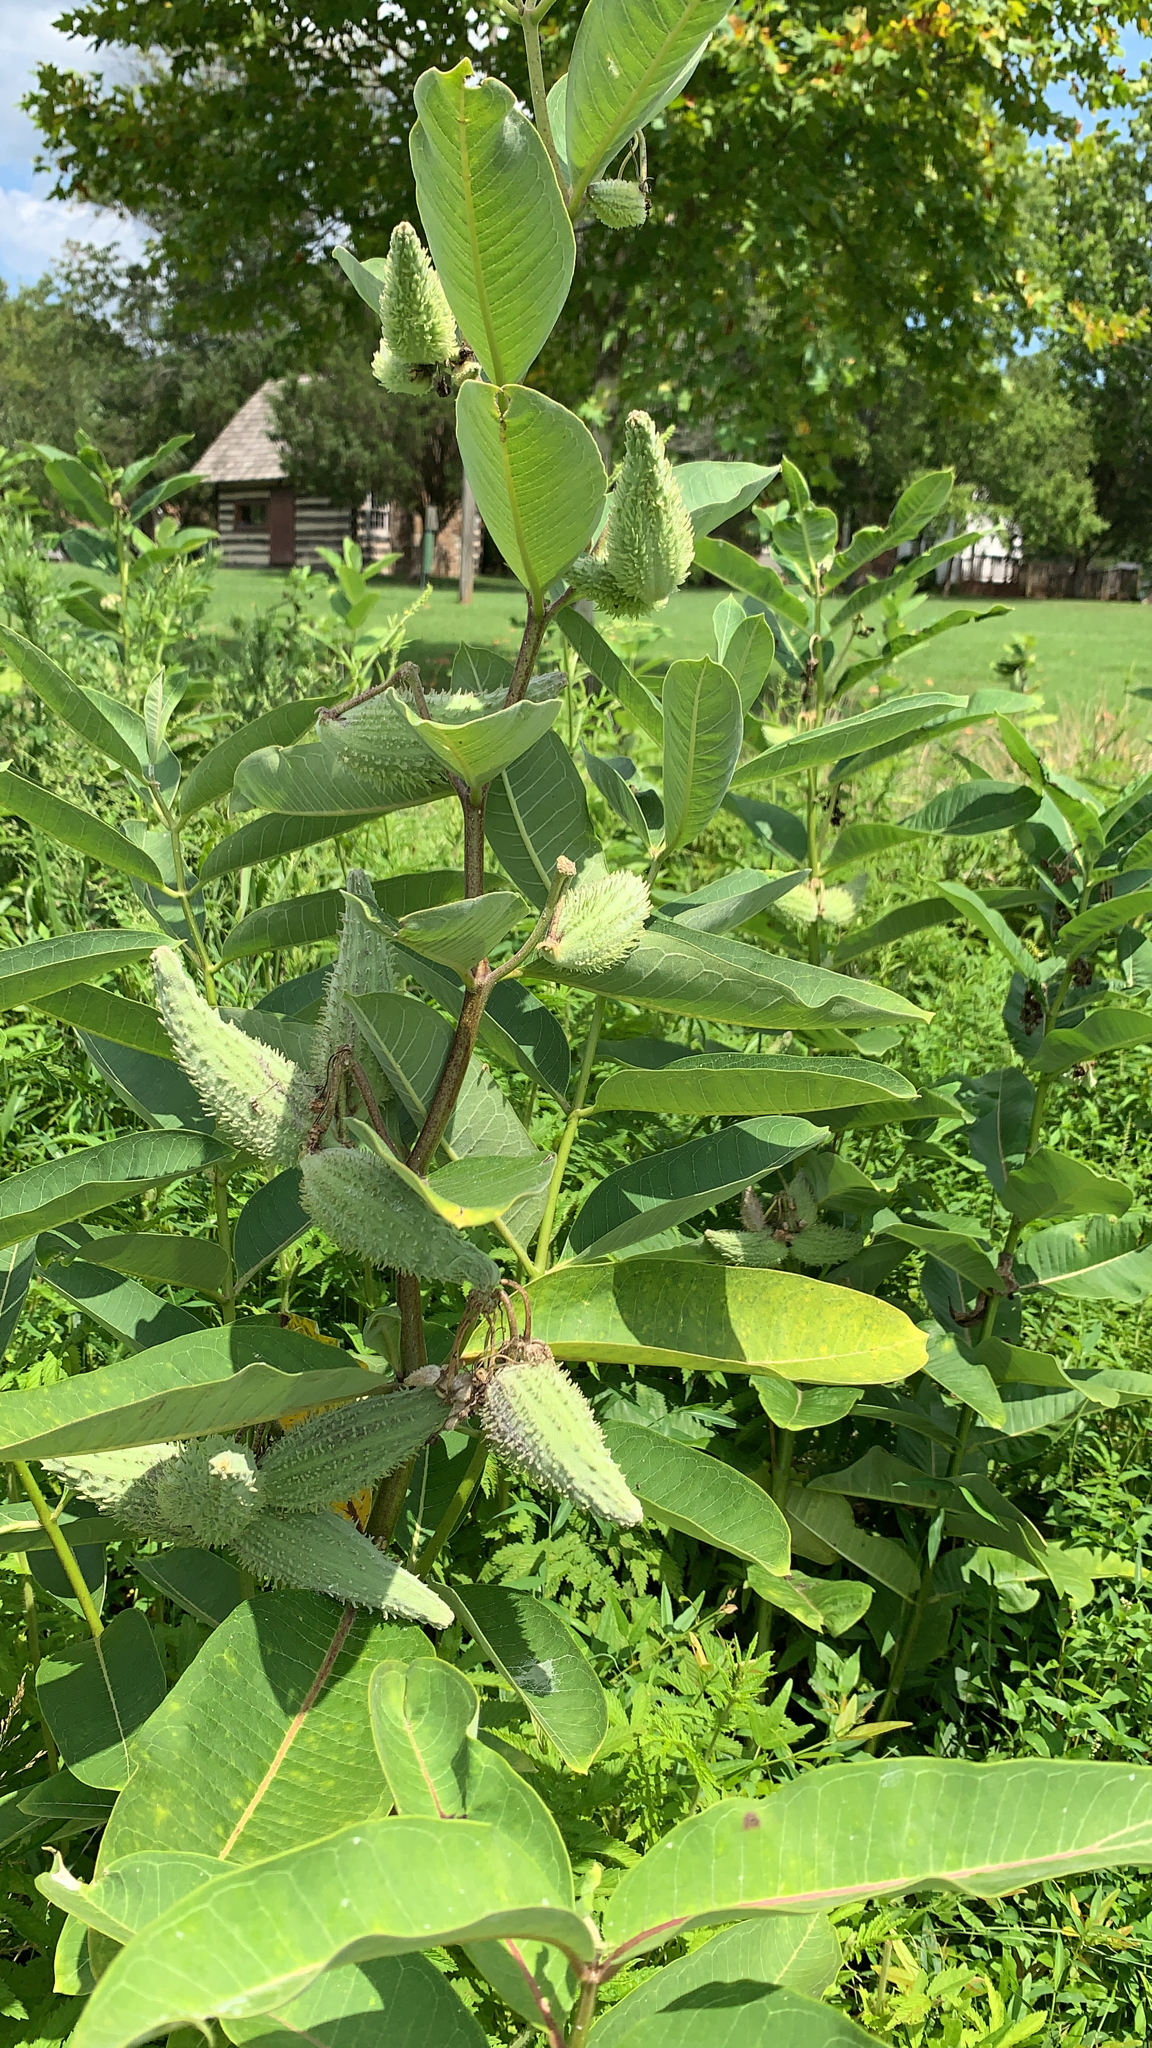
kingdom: Plantae
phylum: Tracheophyta
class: Magnoliopsida
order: Gentianales
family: Apocynaceae
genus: Asclepias
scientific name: Asclepias syriaca
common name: Common milkweed
